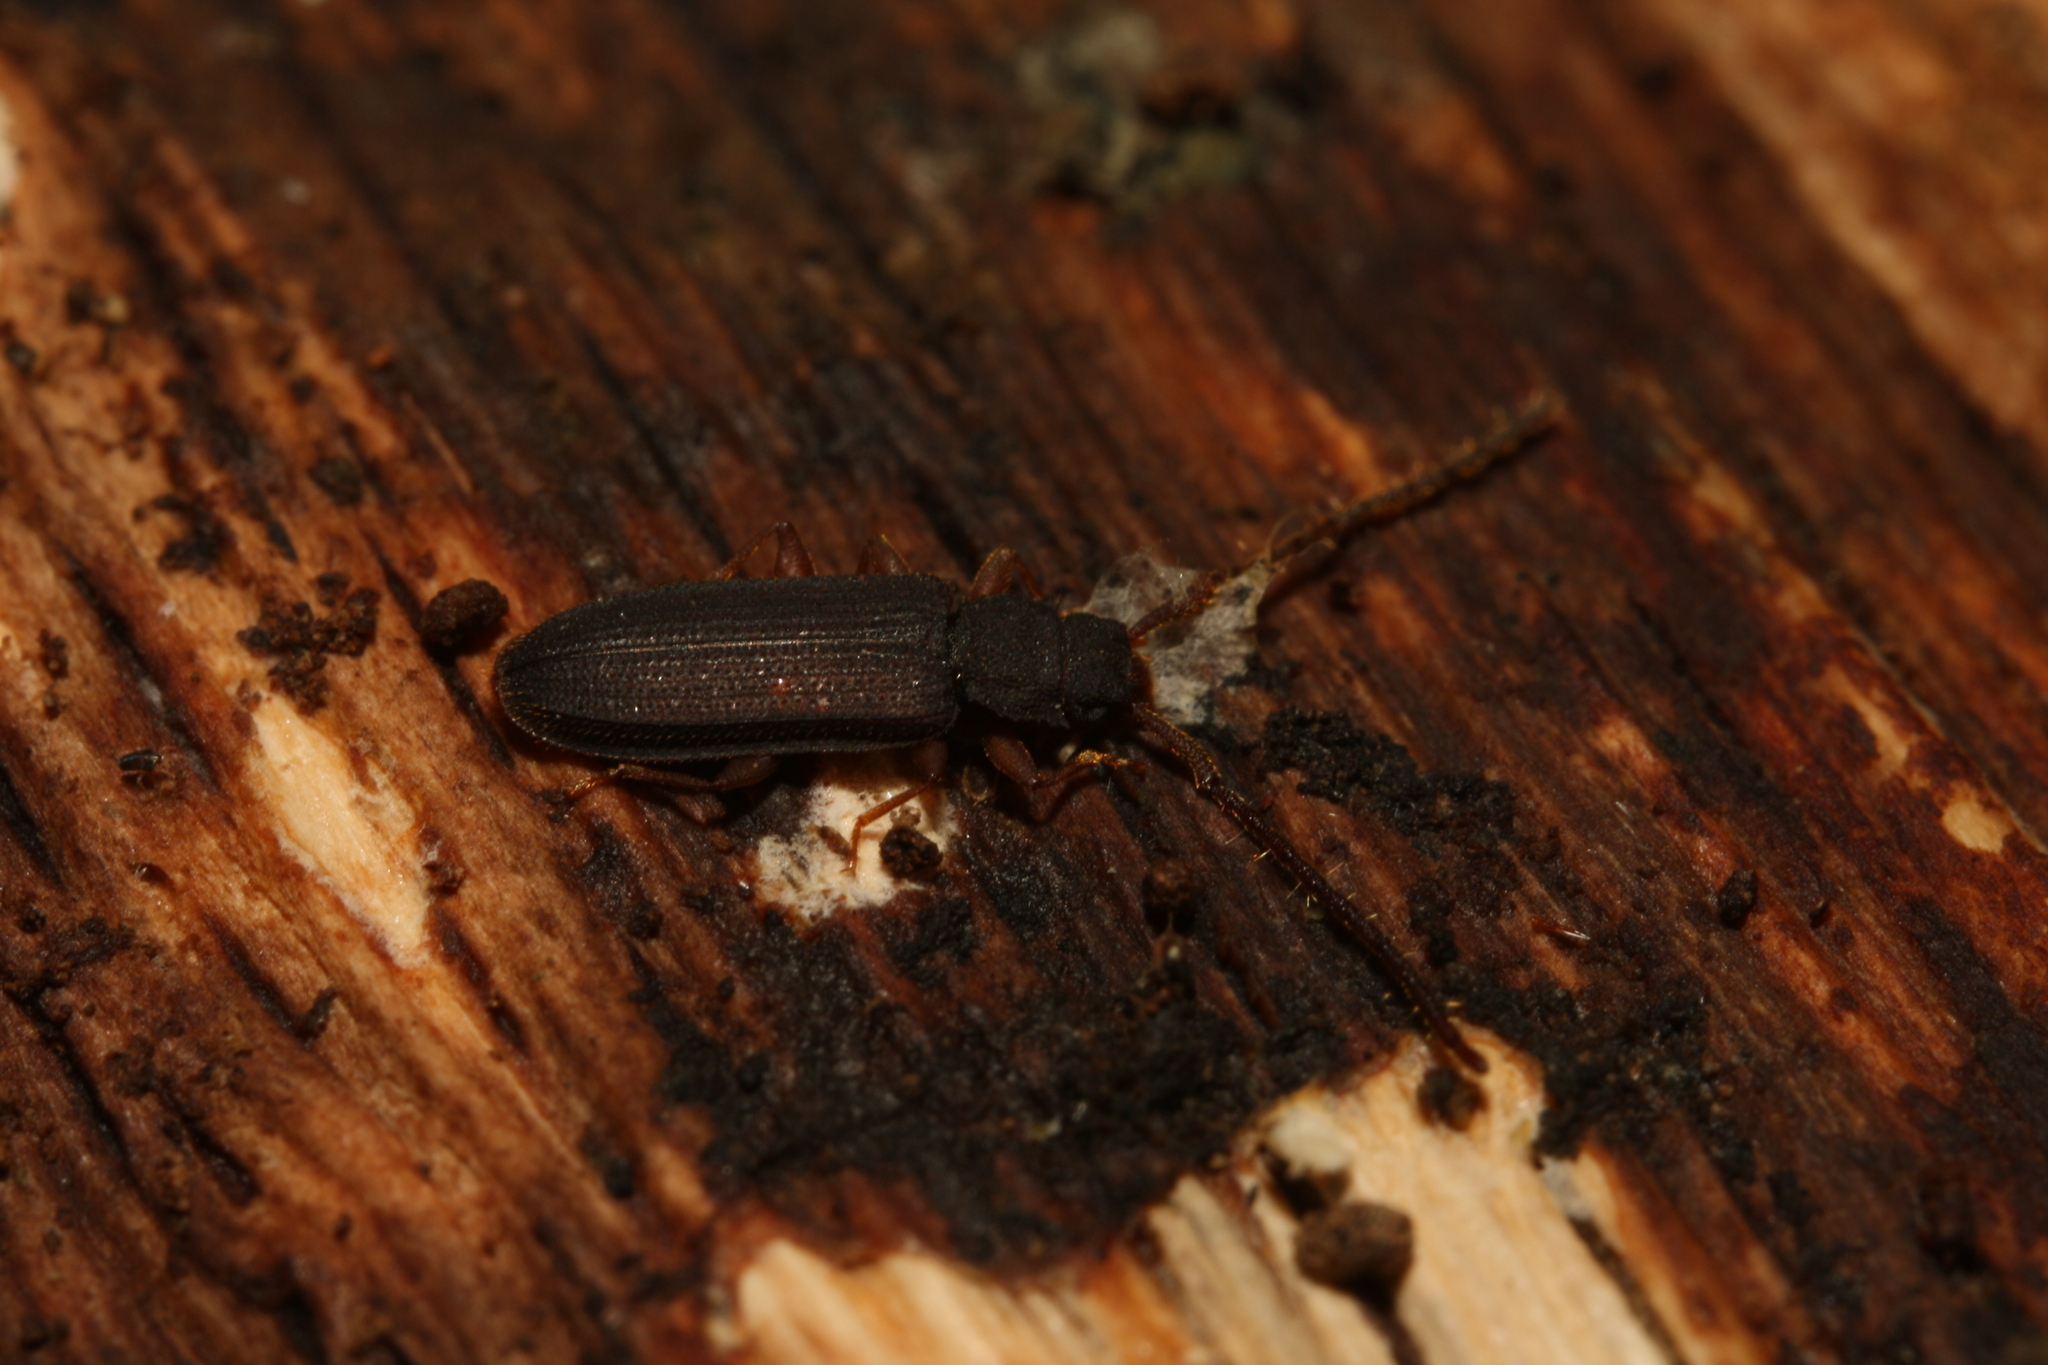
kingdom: Animalia
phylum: Arthropoda
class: Insecta
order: Coleoptera
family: Silvanidae
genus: Uleiota
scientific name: Uleiota planatus
